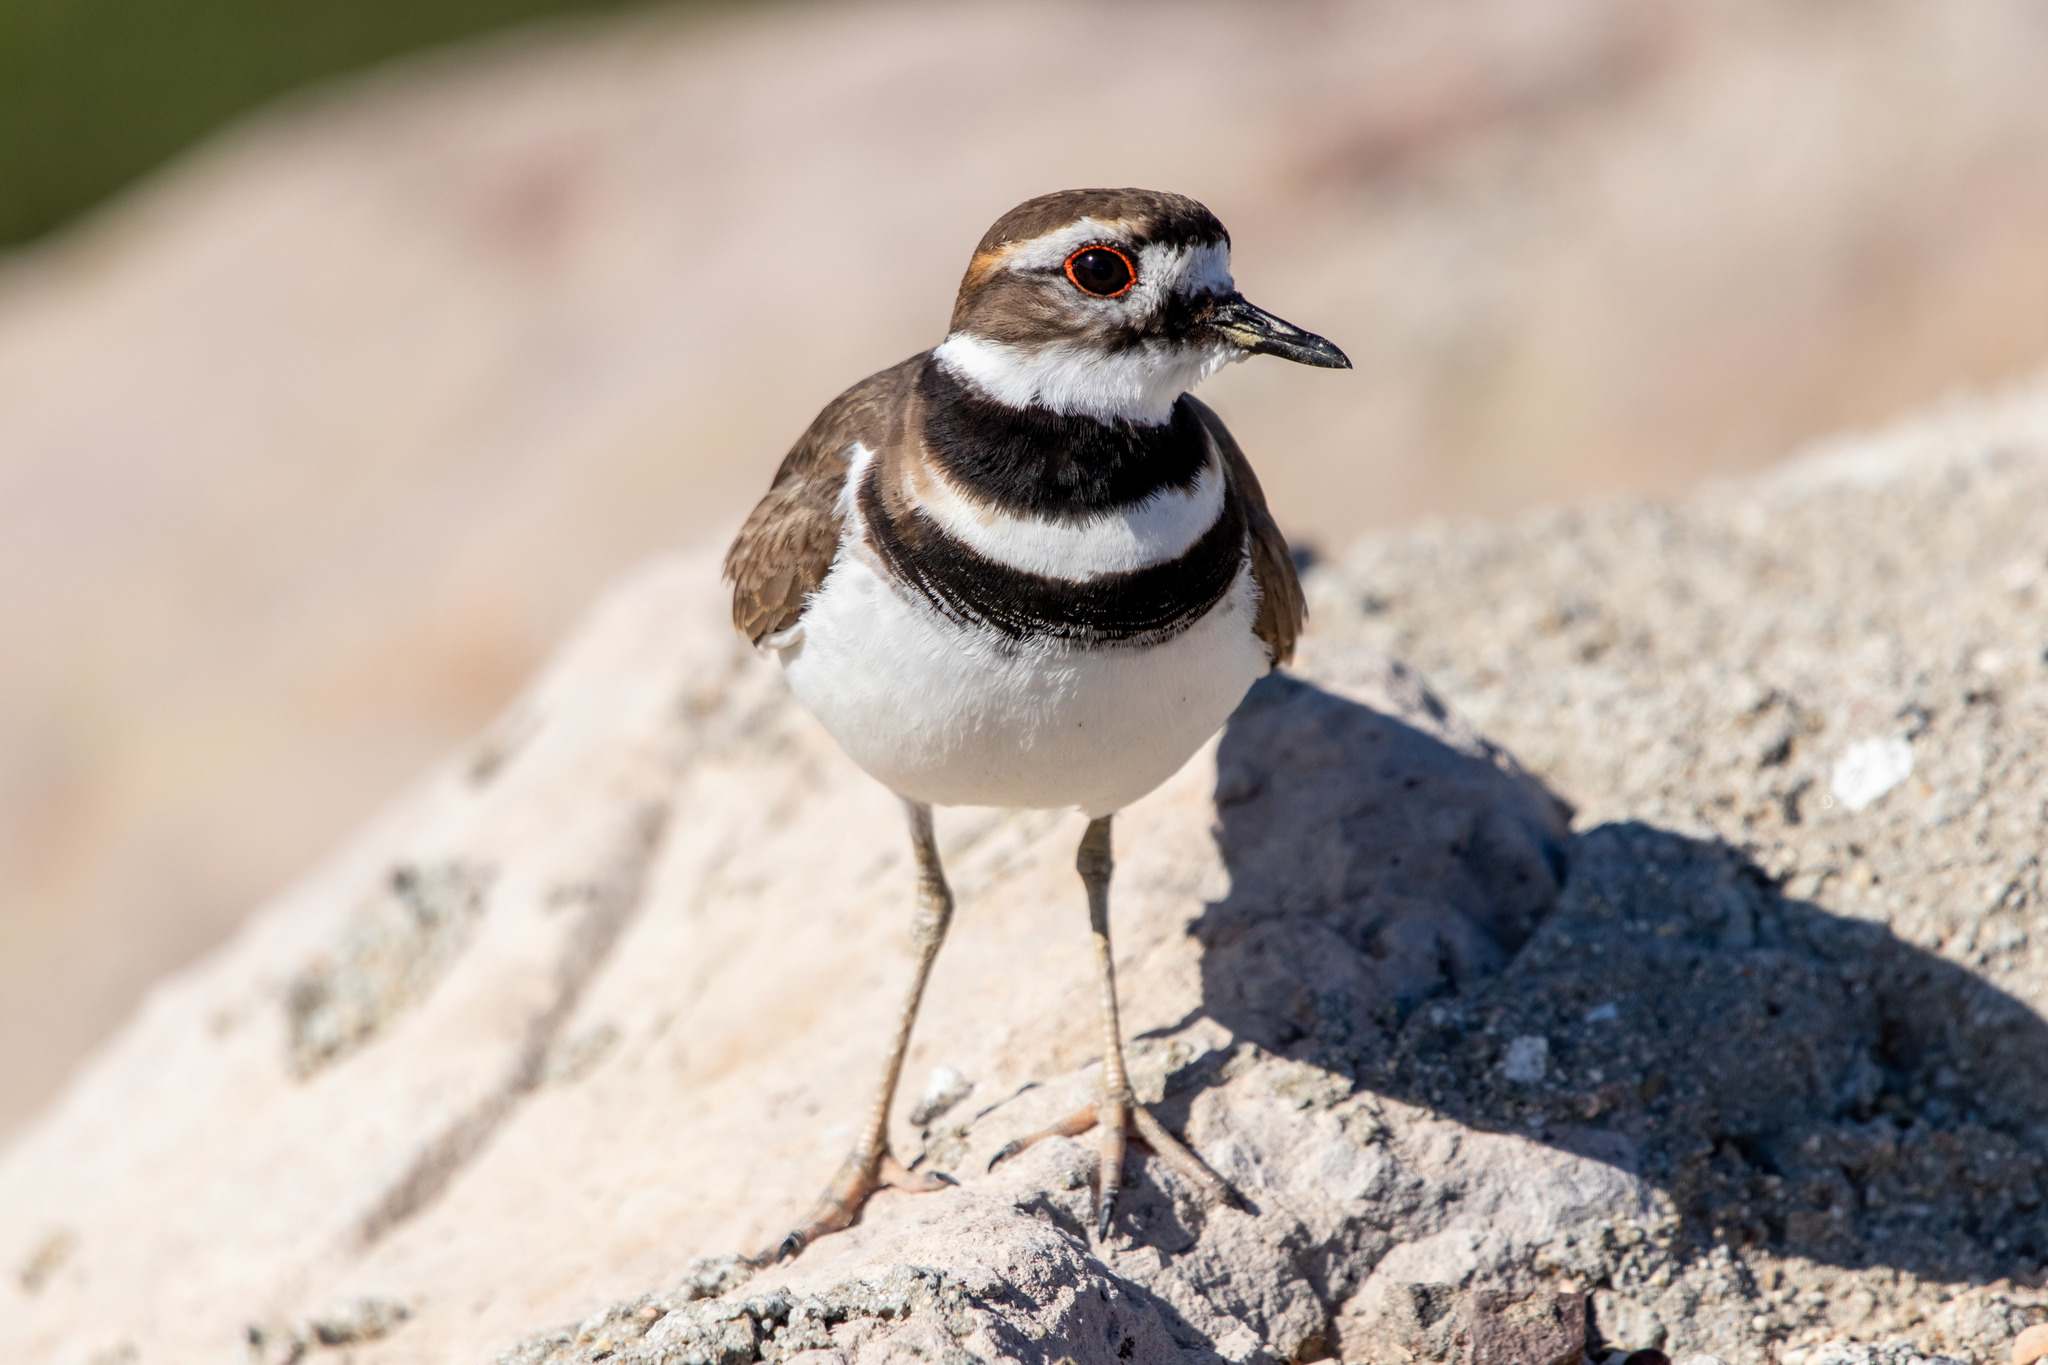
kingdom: Animalia
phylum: Chordata
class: Aves
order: Charadriiformes
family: Charadriidae
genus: Charadrius
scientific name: Charadrius vociferus
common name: Killdeer
